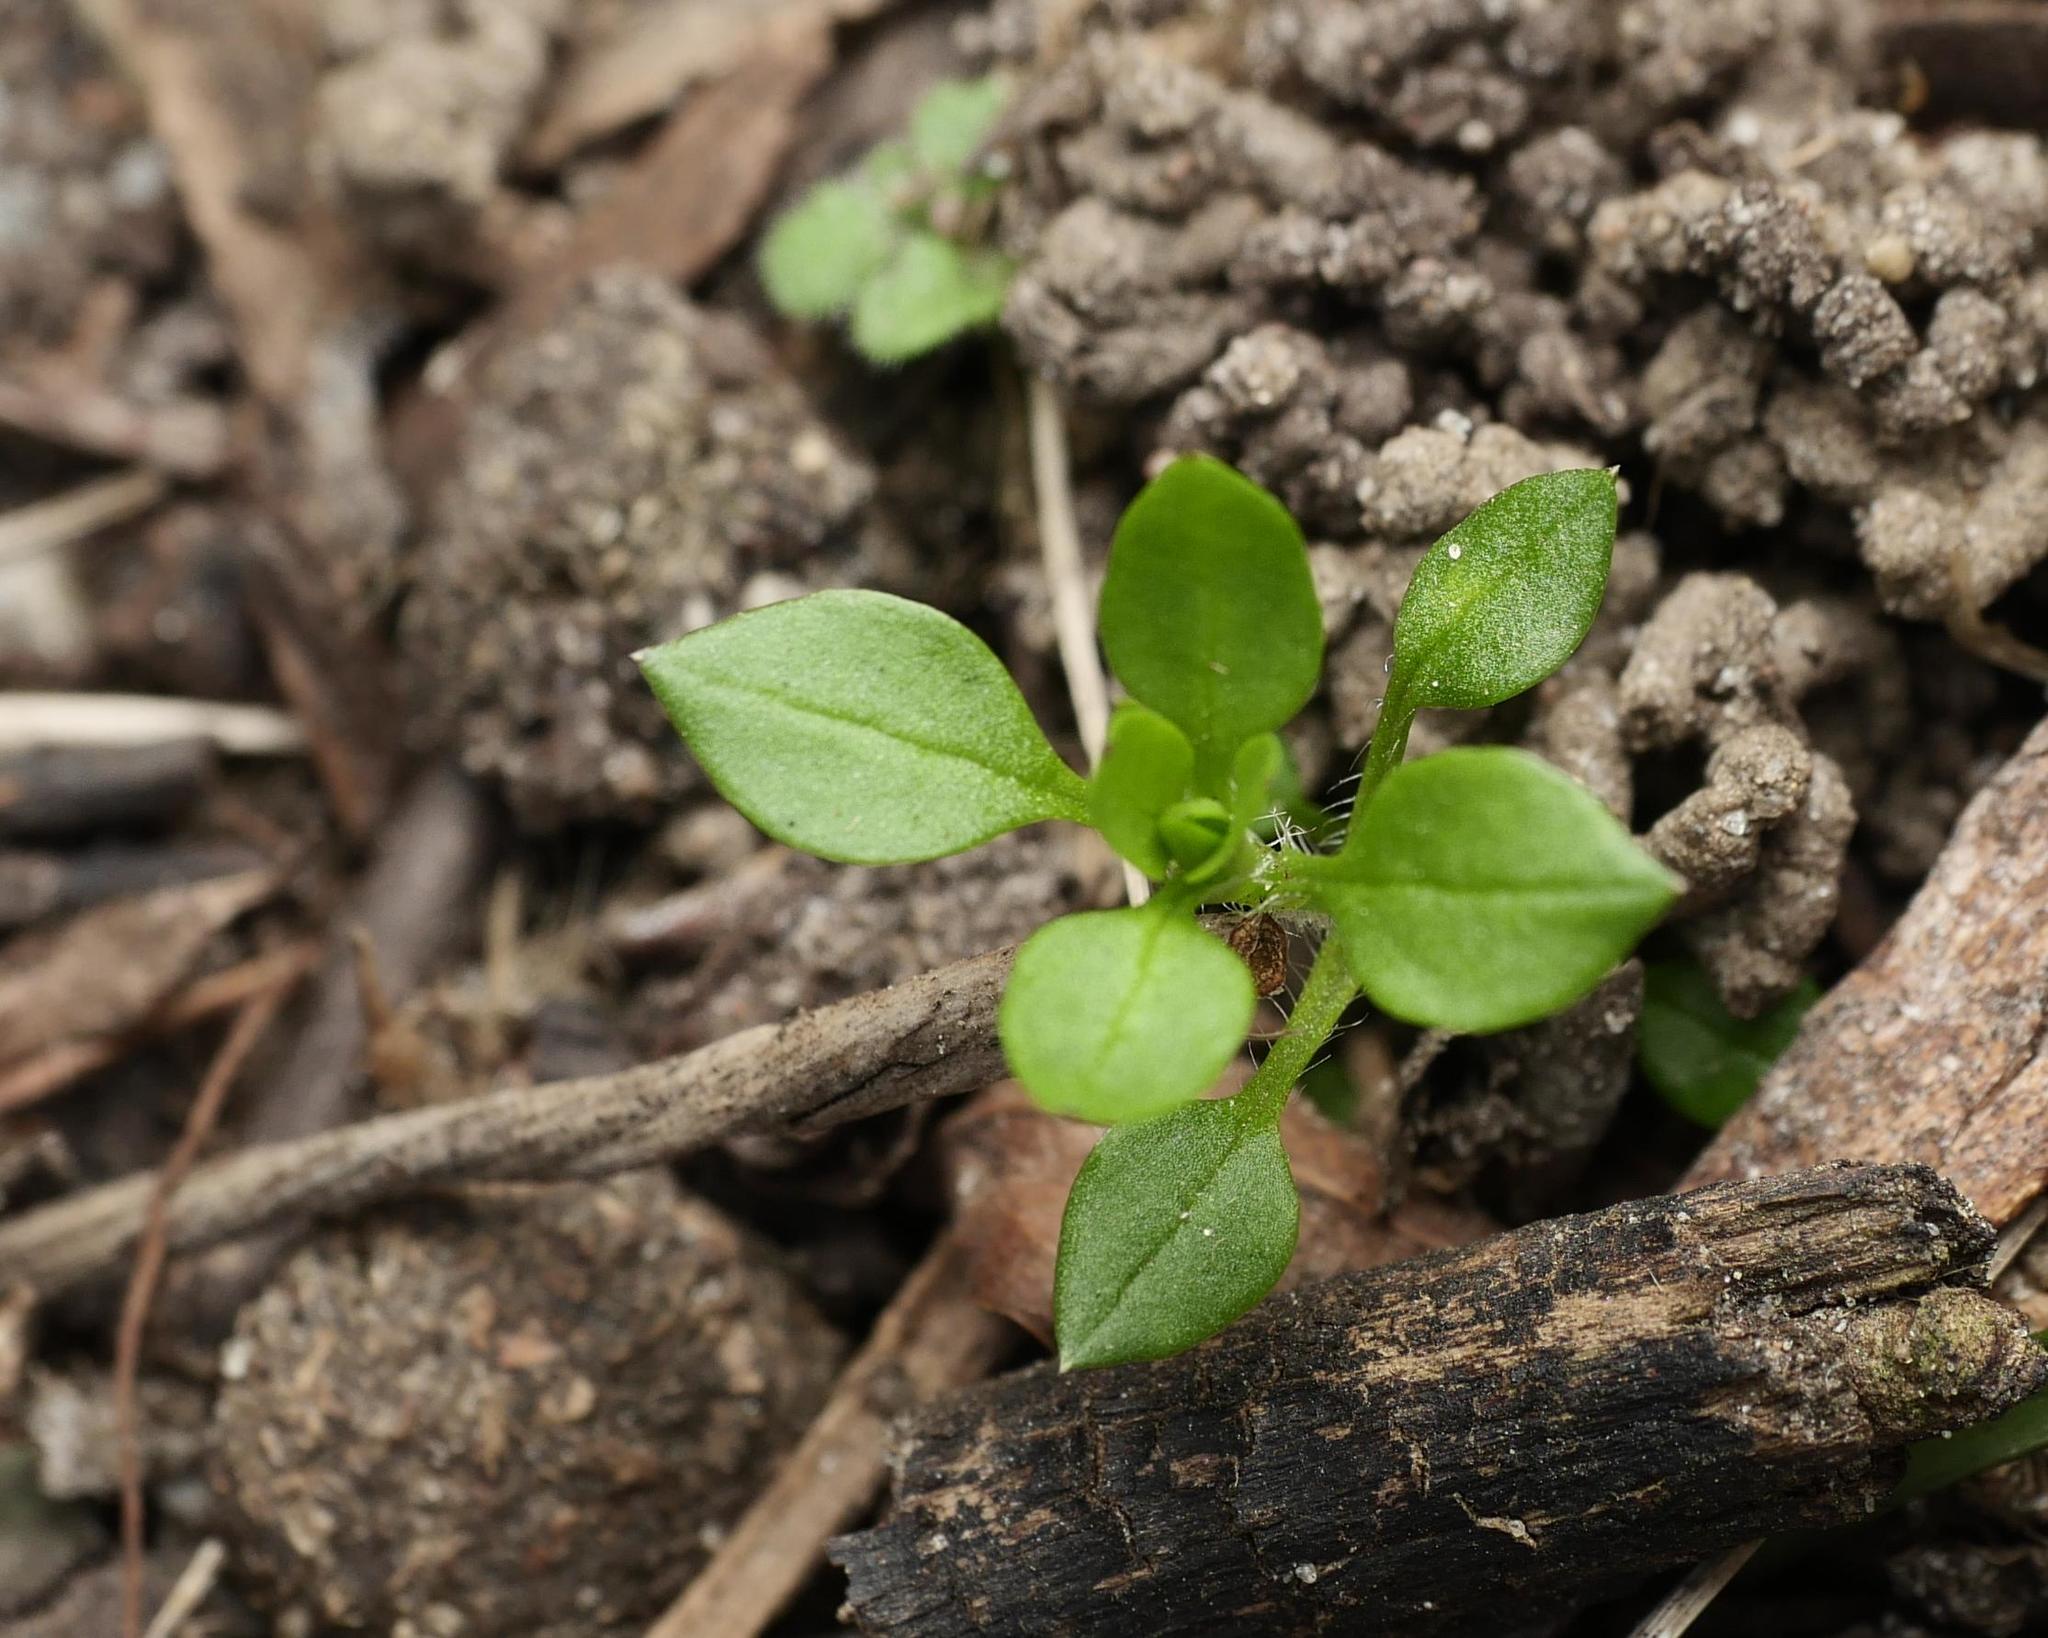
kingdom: Plantae
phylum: Tracheophyta
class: Magnoliopsida
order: Caryophyllales
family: Caryophyllaceae
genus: Stellaria
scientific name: Stellaria media
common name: Common chickweed
